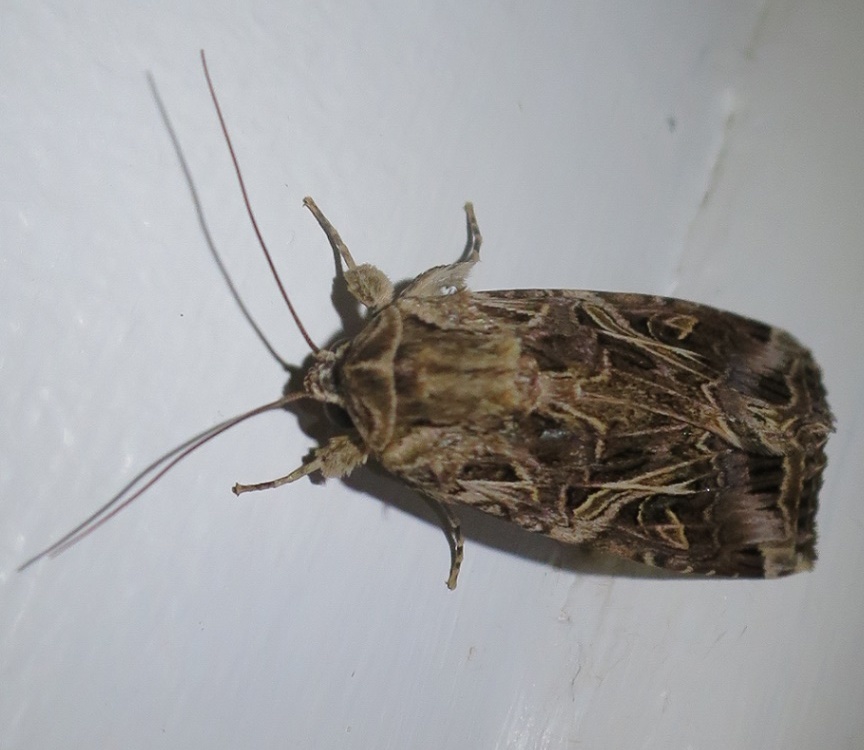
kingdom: Animalia
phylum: Arthropoda
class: Insecta
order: Lepidoptera
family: Noctuidae
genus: Spodoptera
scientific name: Spodoptera litura
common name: Asian cotton leafworm
